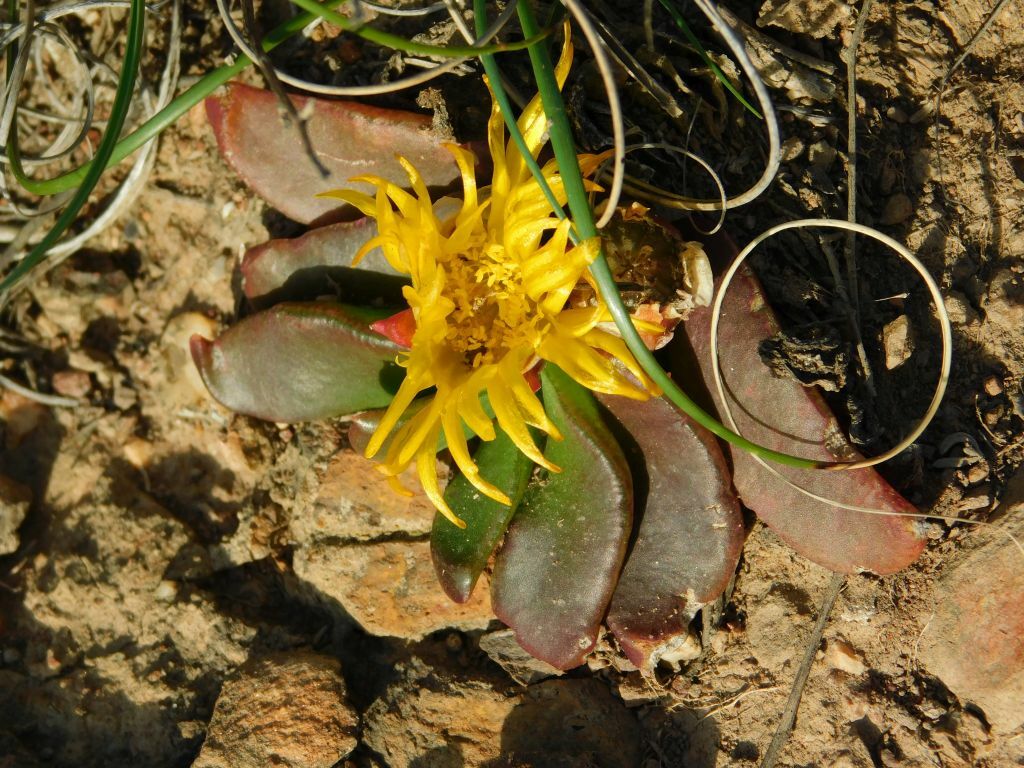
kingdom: Plantae
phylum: Tracheophyta
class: Magnoliopsida
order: Caryophyllales
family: Aizoaceae
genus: Glottiphyllum
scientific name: Glottiphyllum depressum
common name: Fig-marigold
